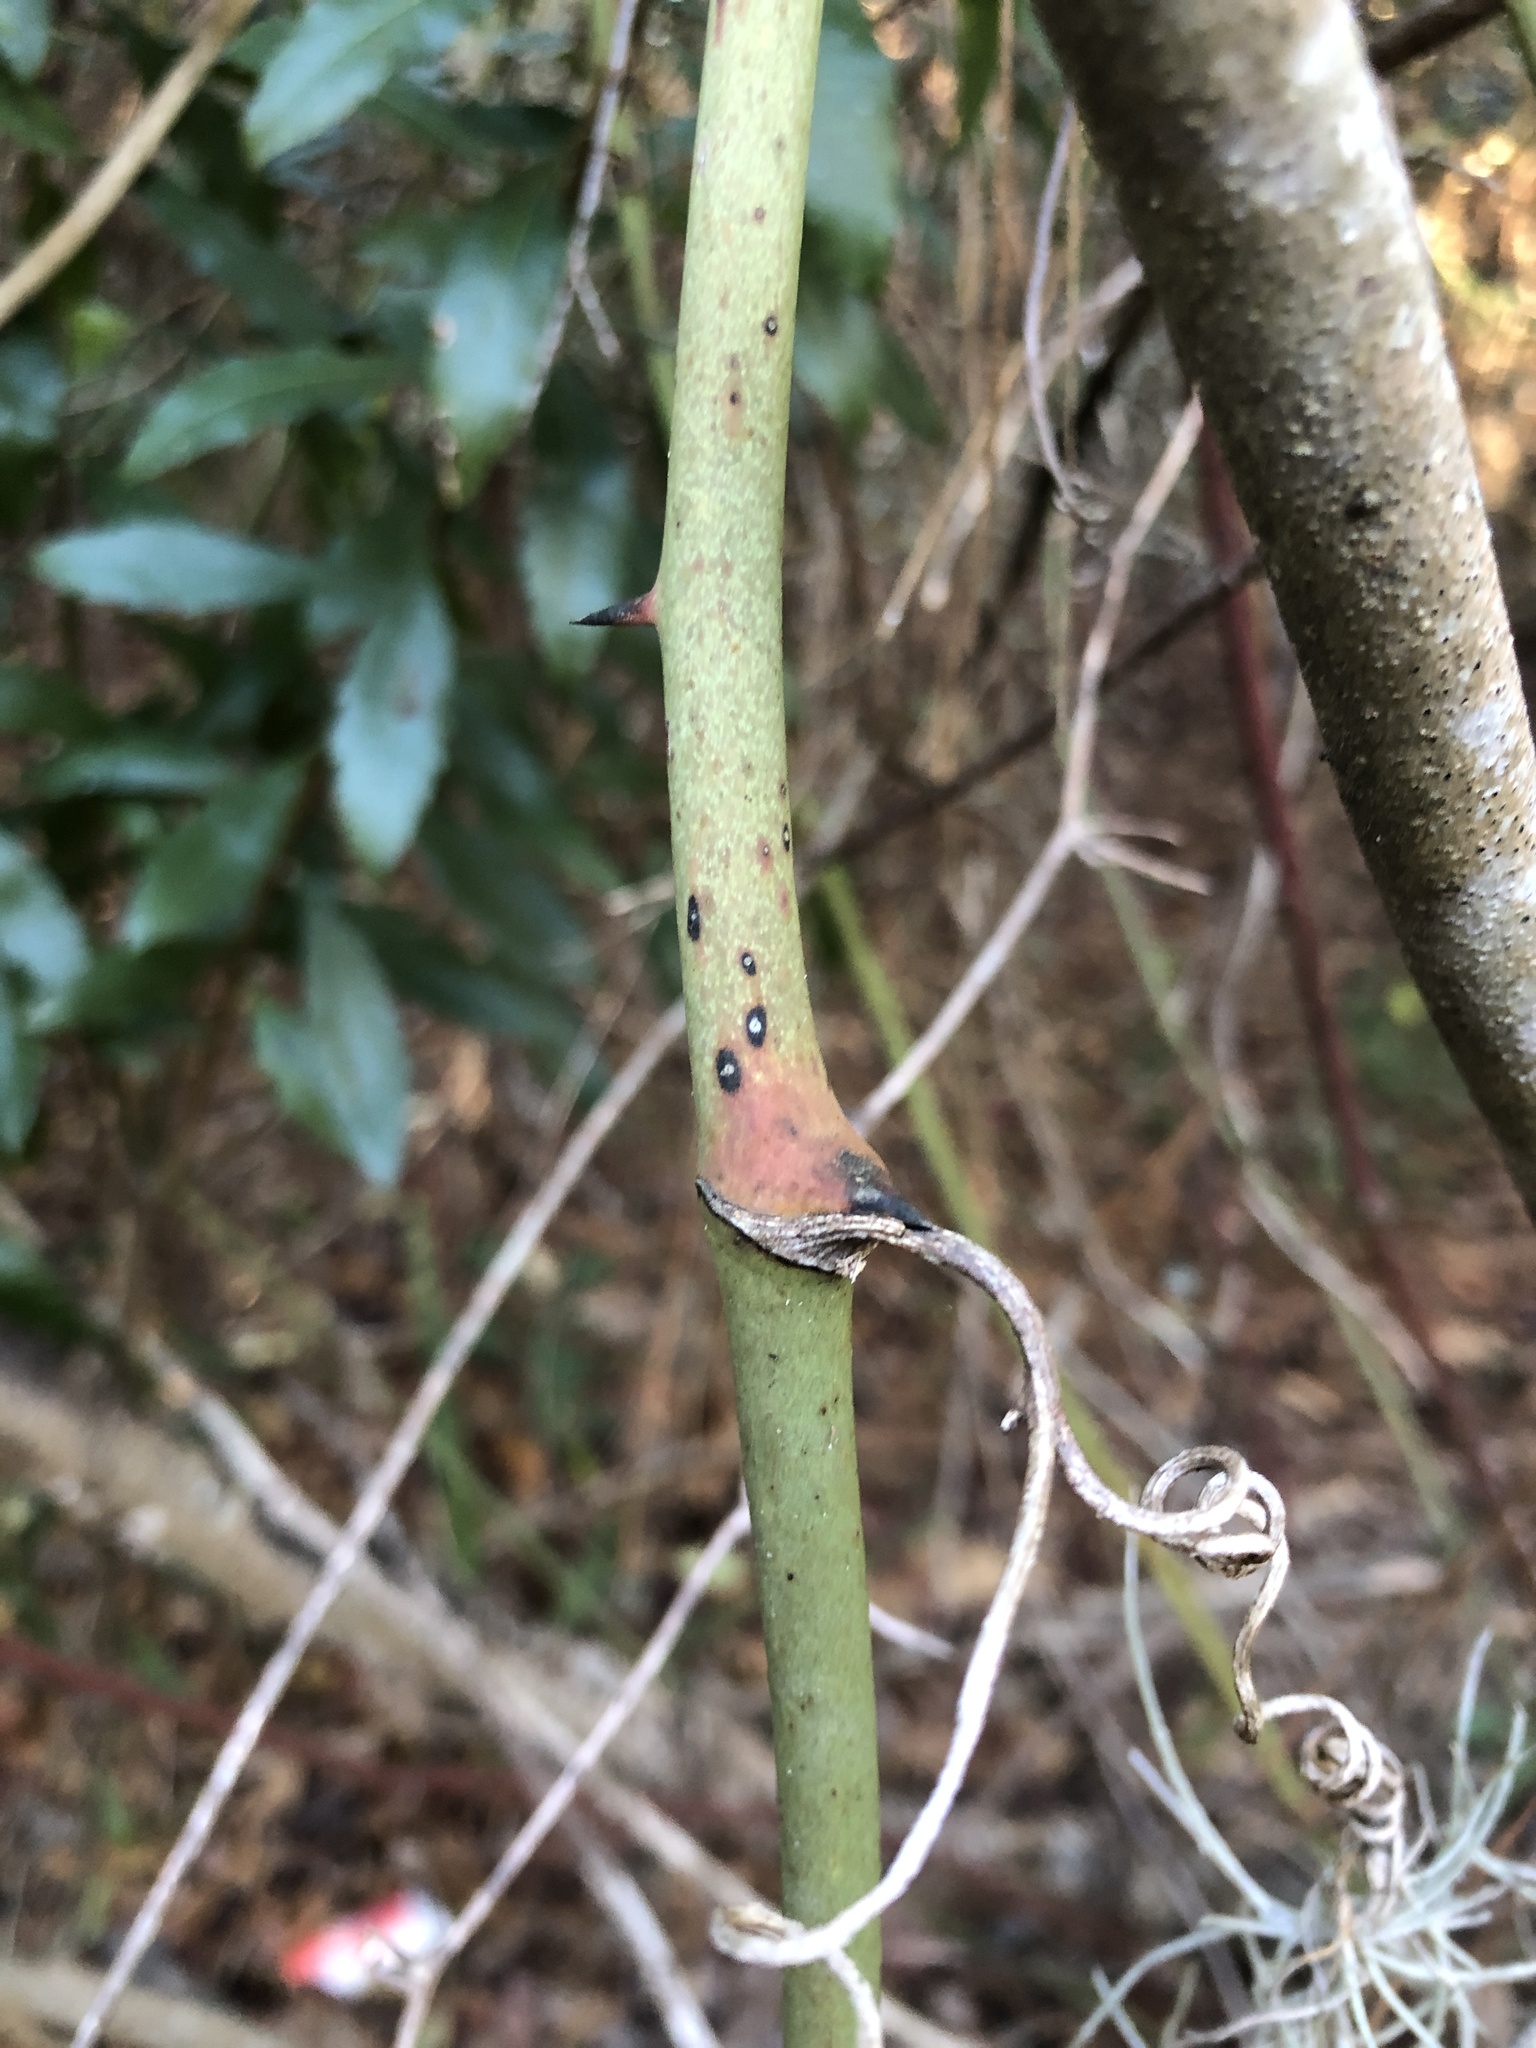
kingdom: Plantae
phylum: Tracheophyta
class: Liliopsida
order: Liliales
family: Smilacaceae
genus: Smilax
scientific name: Smilax auriculata
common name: Wild bamboo
